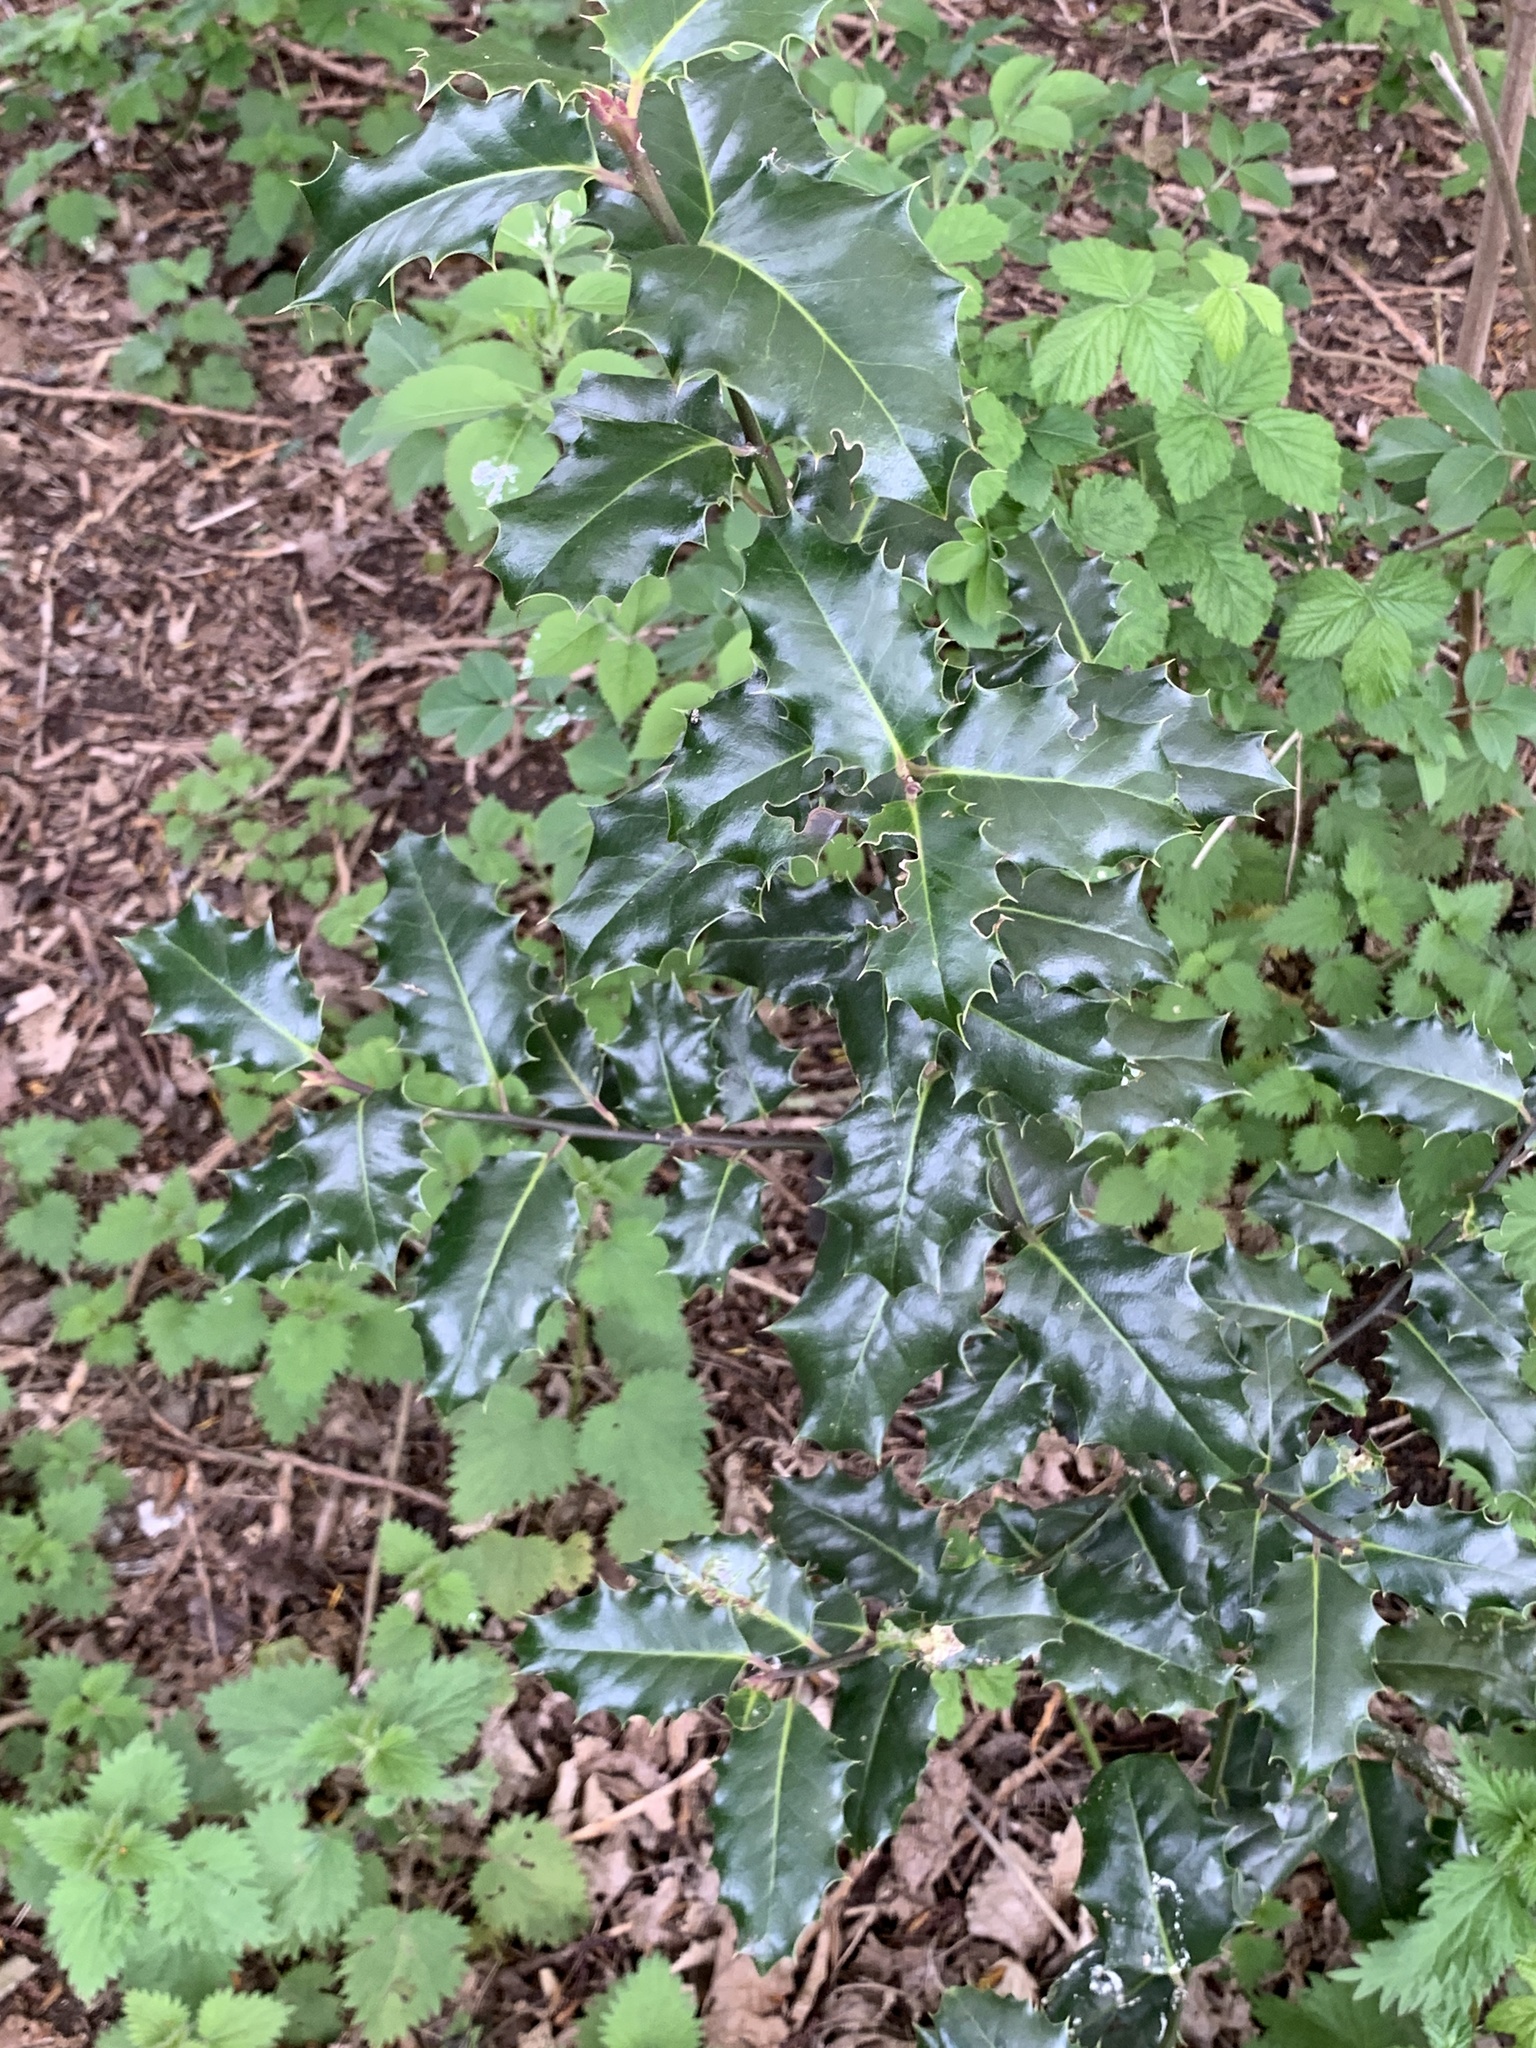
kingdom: Plantae
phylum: Tracheophyta
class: Magnoliopsida
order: Aquifoliales
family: Aquifoliaceae
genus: Ilex
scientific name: Ilex aquifolium
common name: English holly
